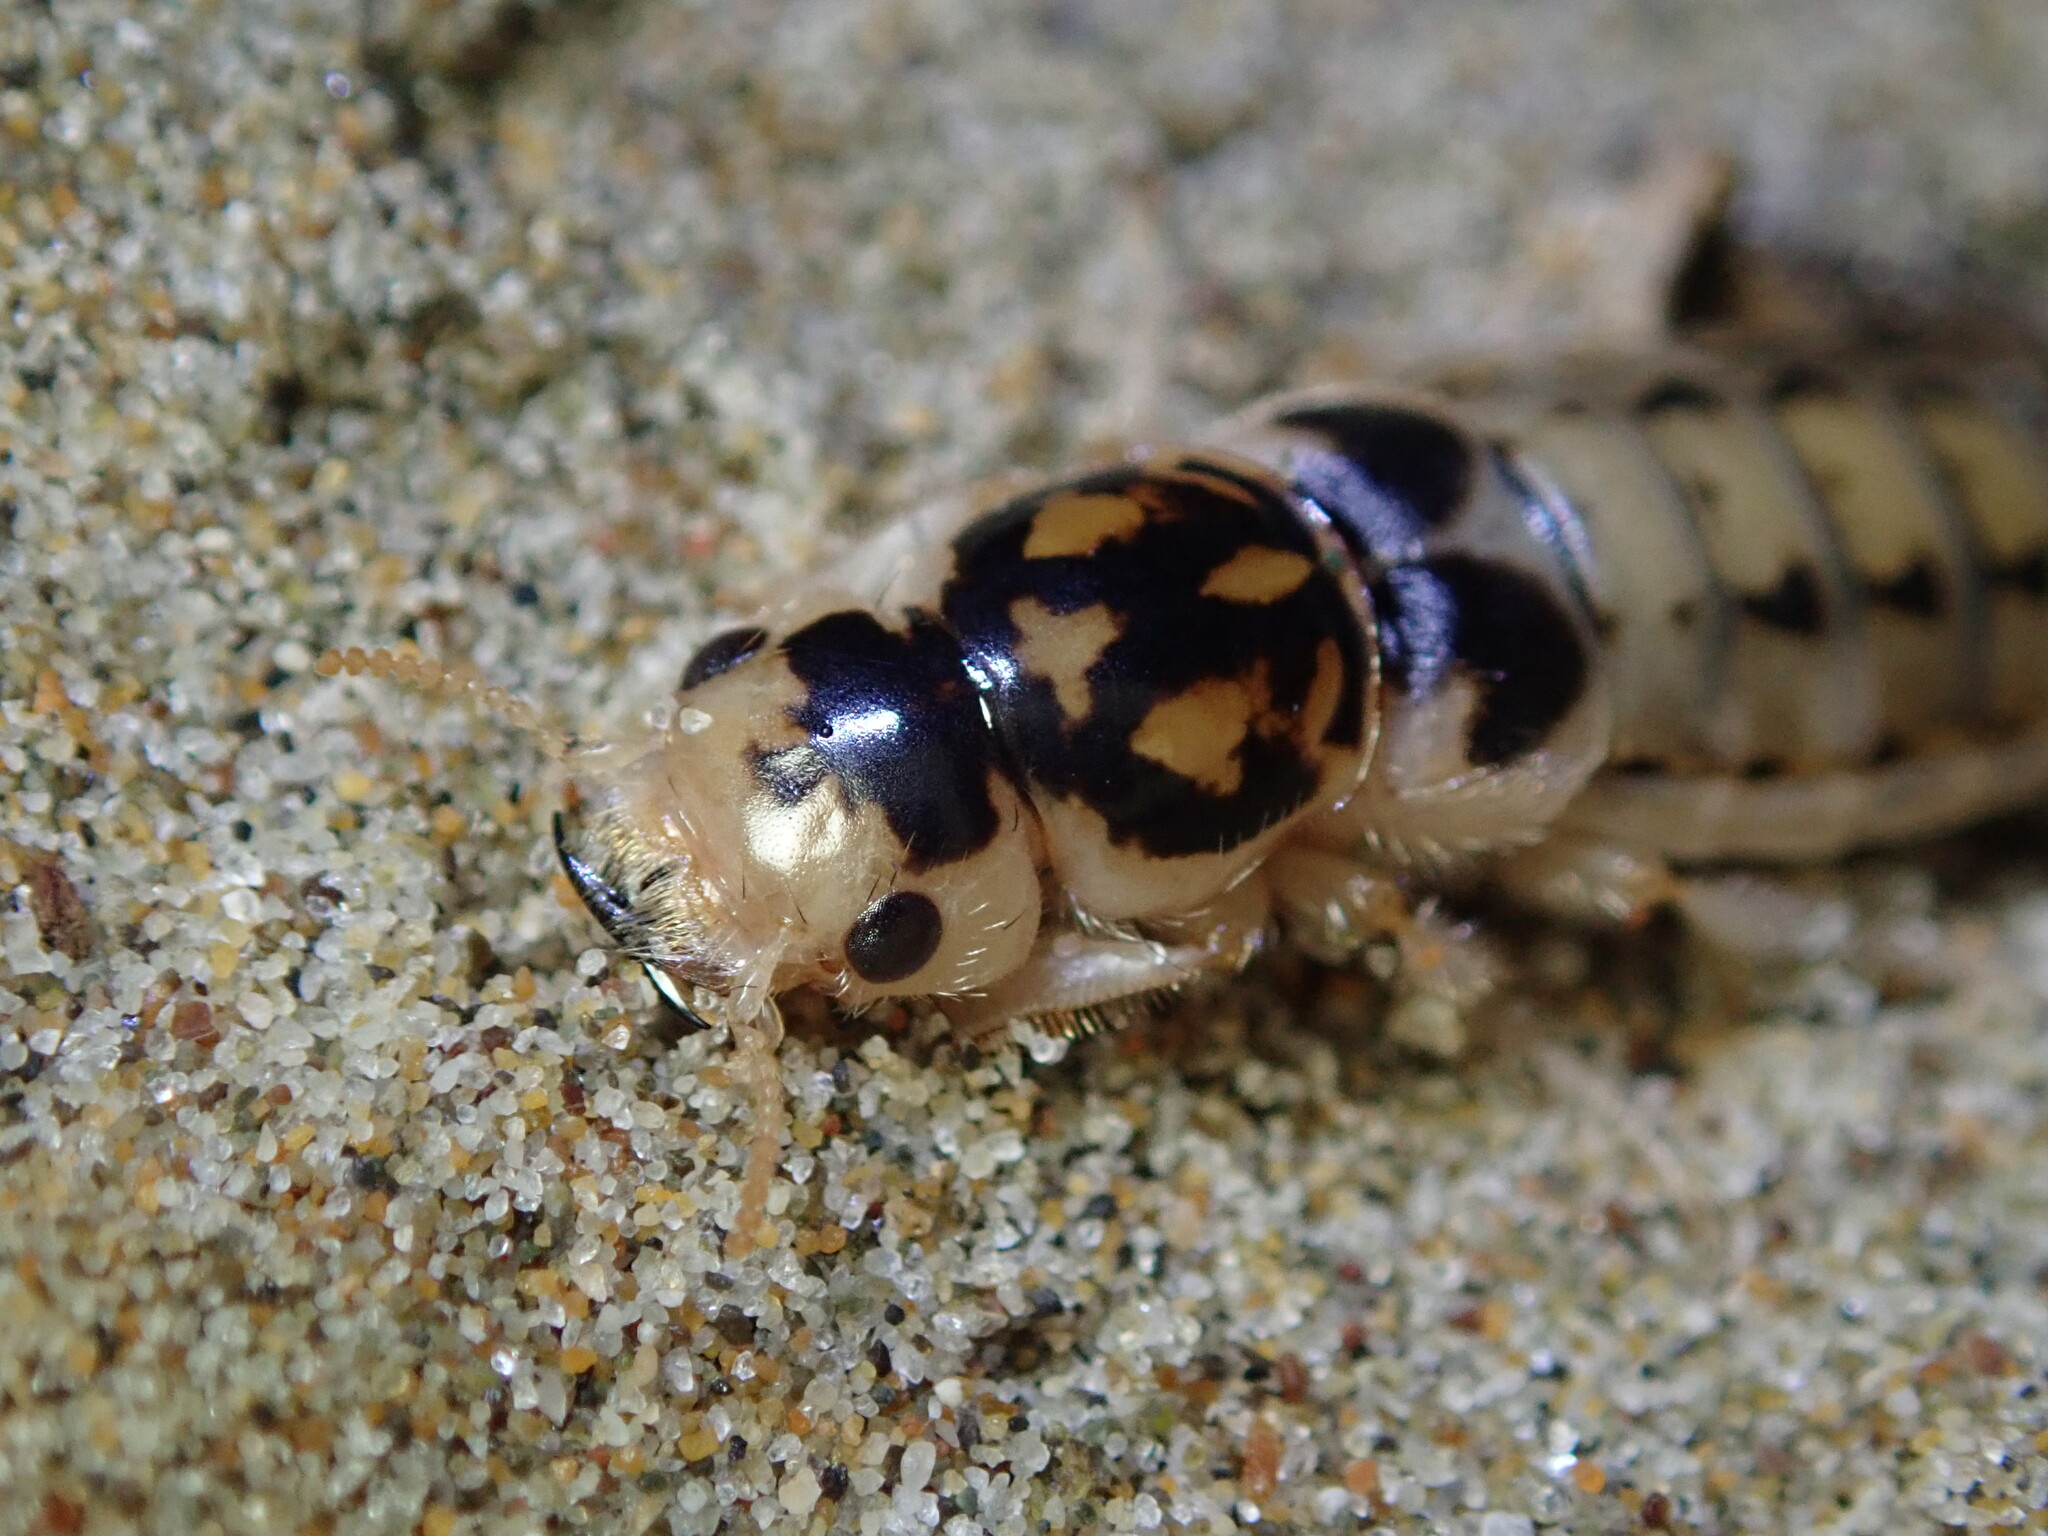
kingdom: Animalia
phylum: Arthropoda
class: Insecta
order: Coleoptera
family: Staphylinidae
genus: Thinopinus
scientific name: Thinopinus pictus
